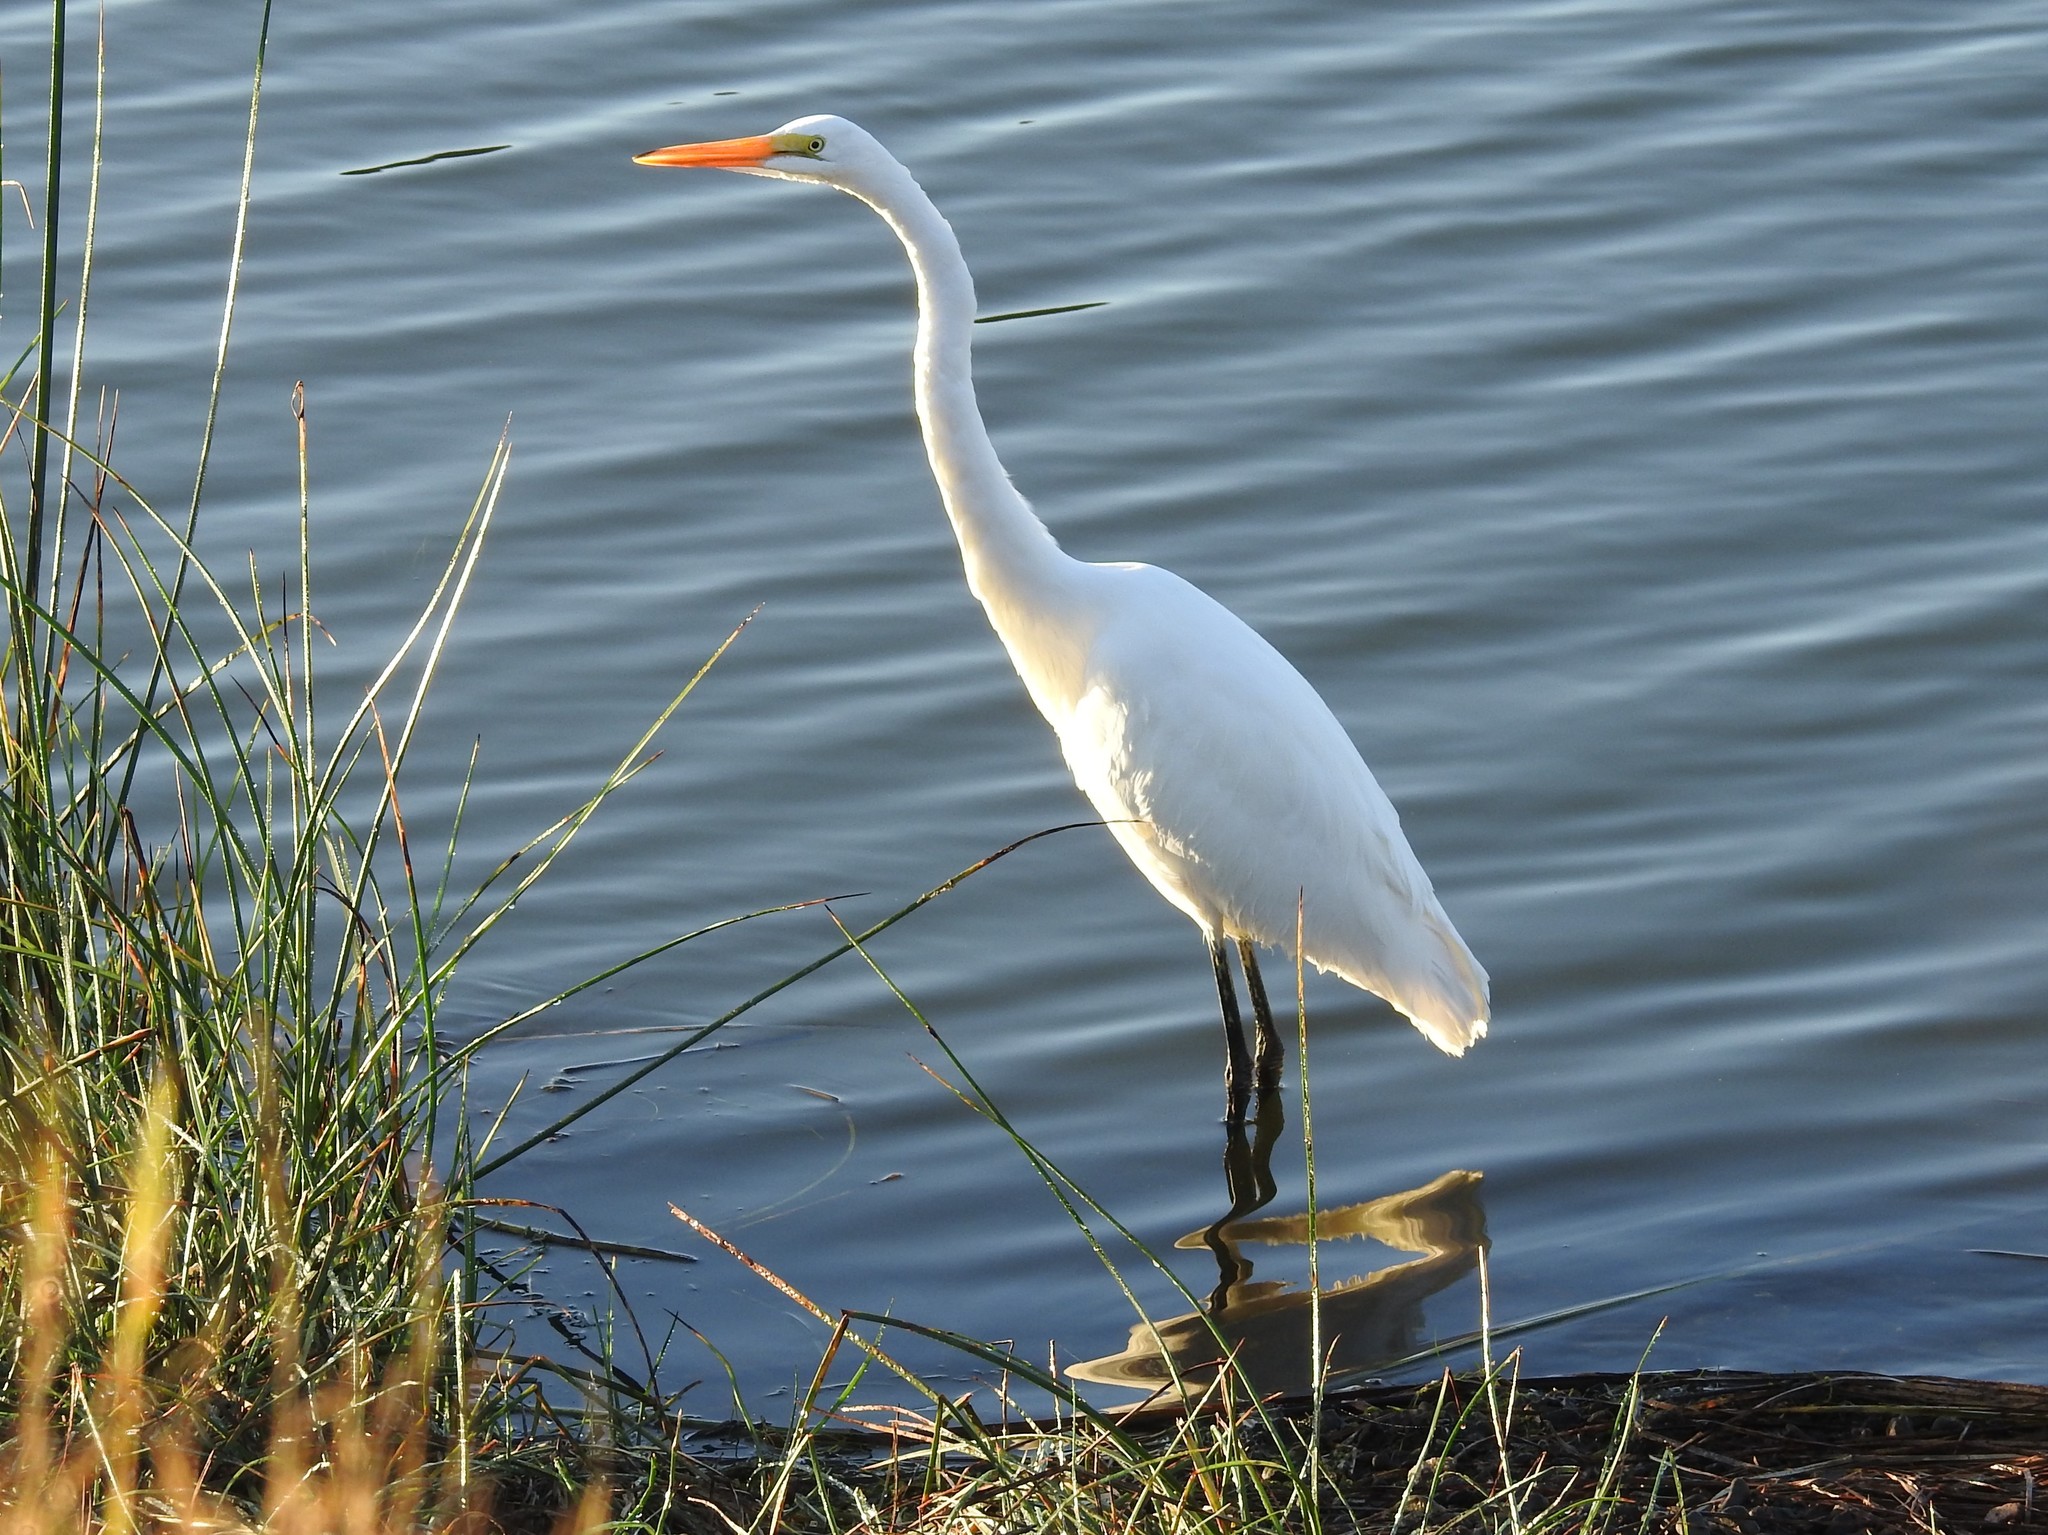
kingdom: Animalia
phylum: Chordata
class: Aves
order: Pelecaniformes
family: Ardeidae
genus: Ardea
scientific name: Ardea alba
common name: Great egret
